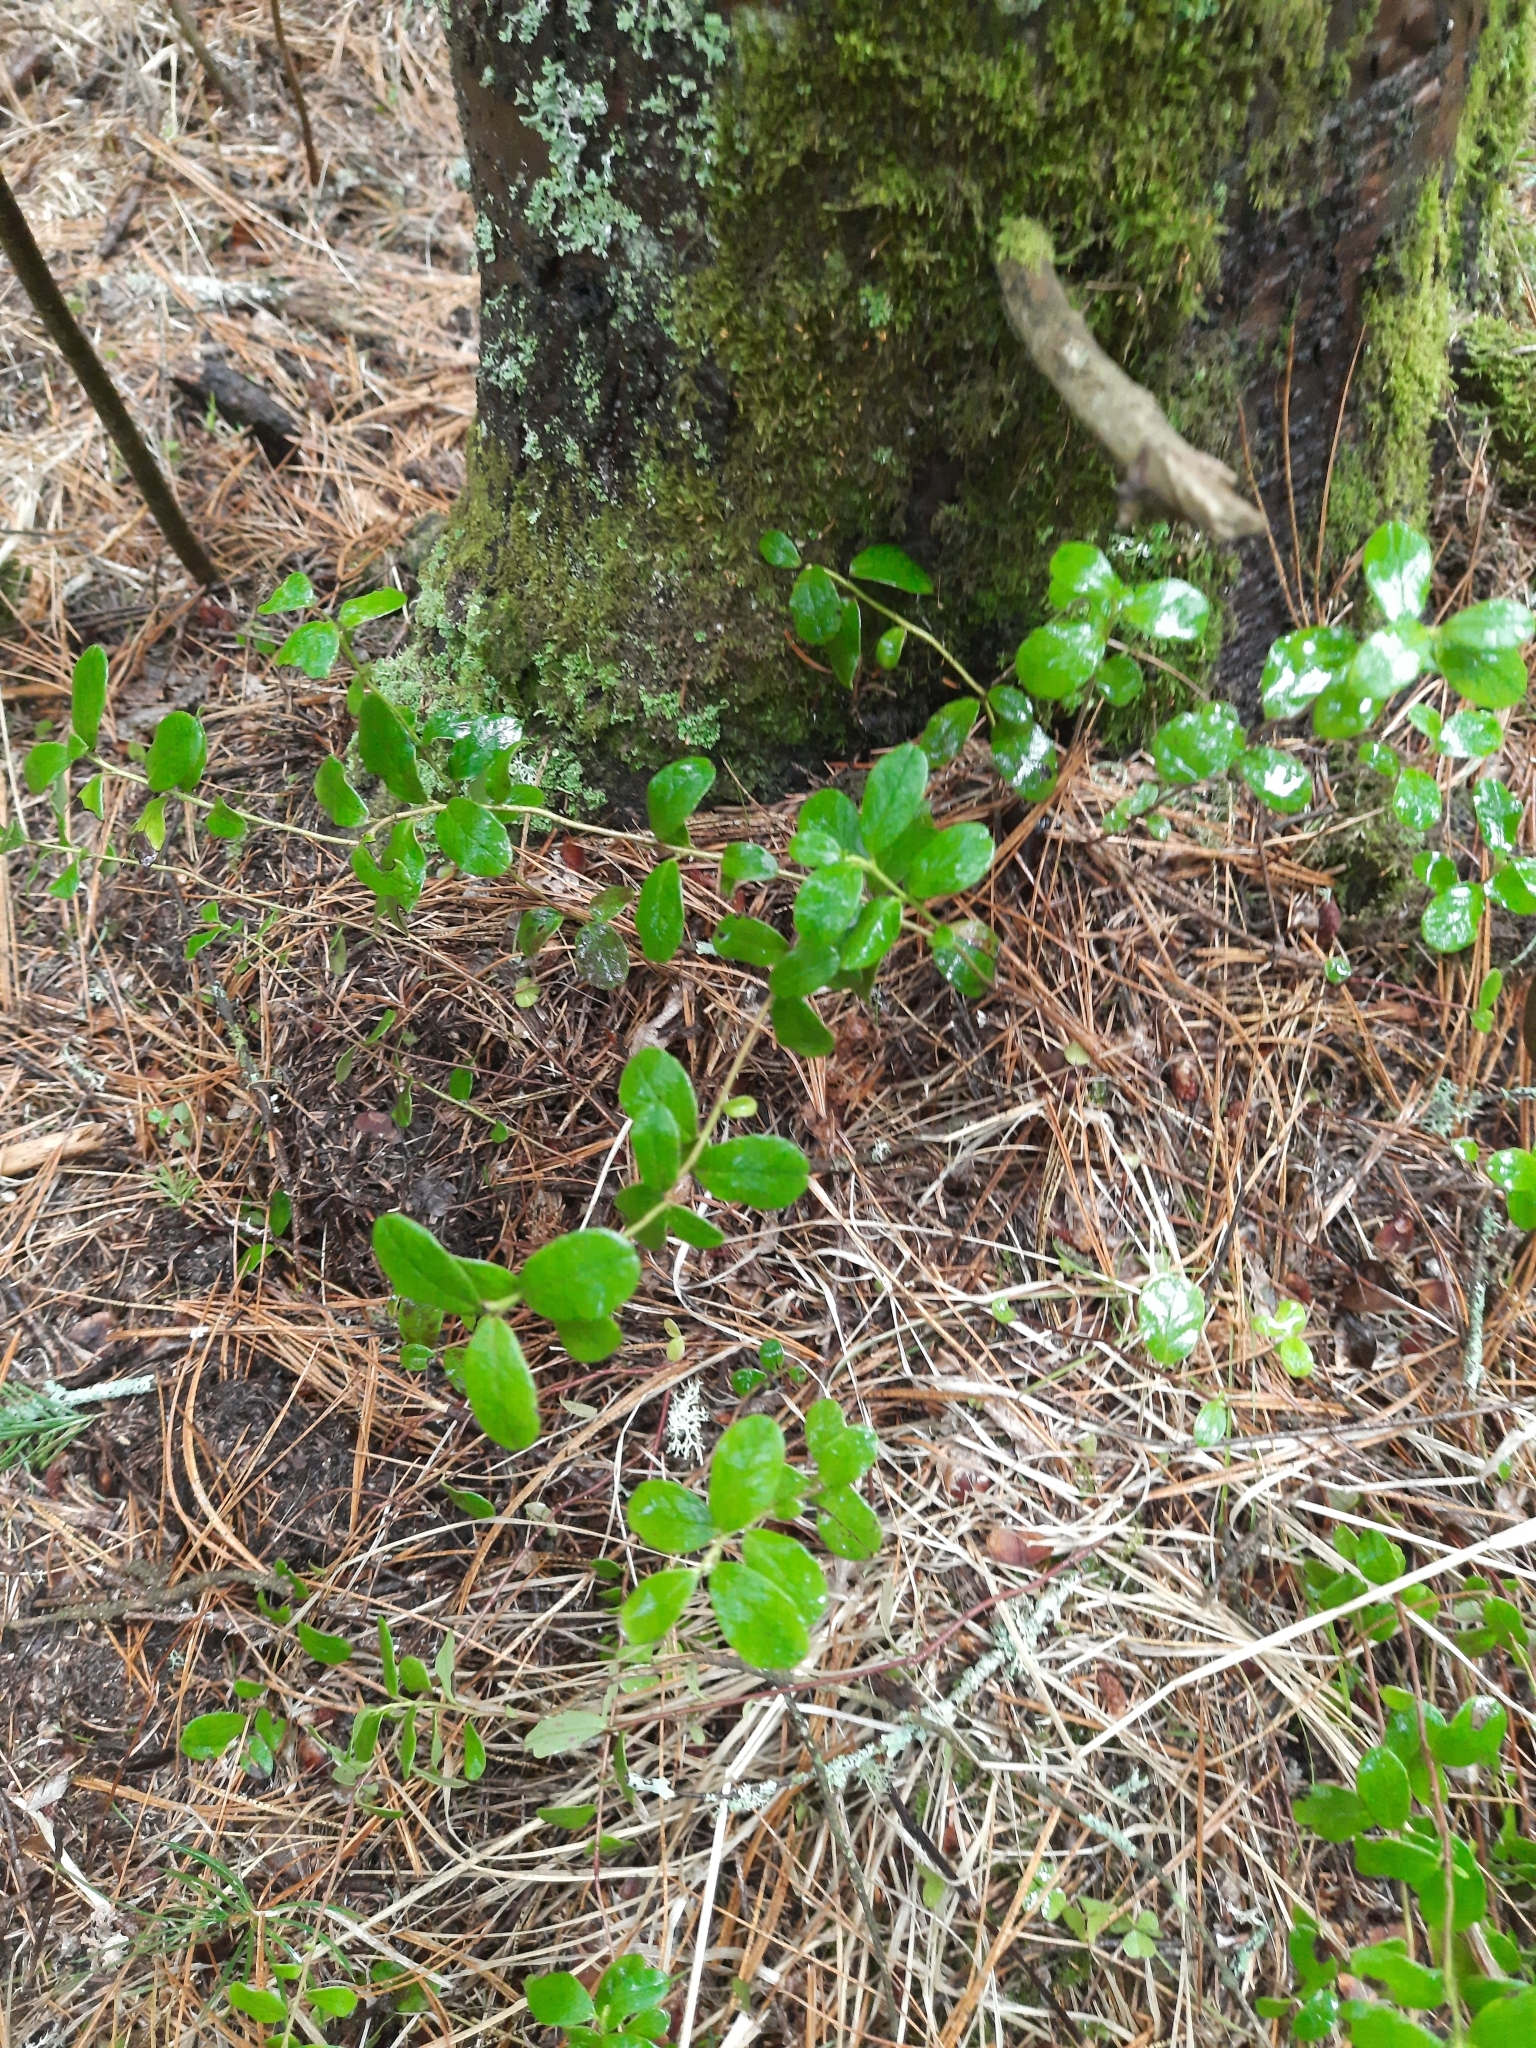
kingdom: Plantae
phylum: Tracheophyta
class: Magnoliopsida
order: Ericales
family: Ericaceae
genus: Vaccinium
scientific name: Vaccinium vitis-idaea
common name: Cowberry
